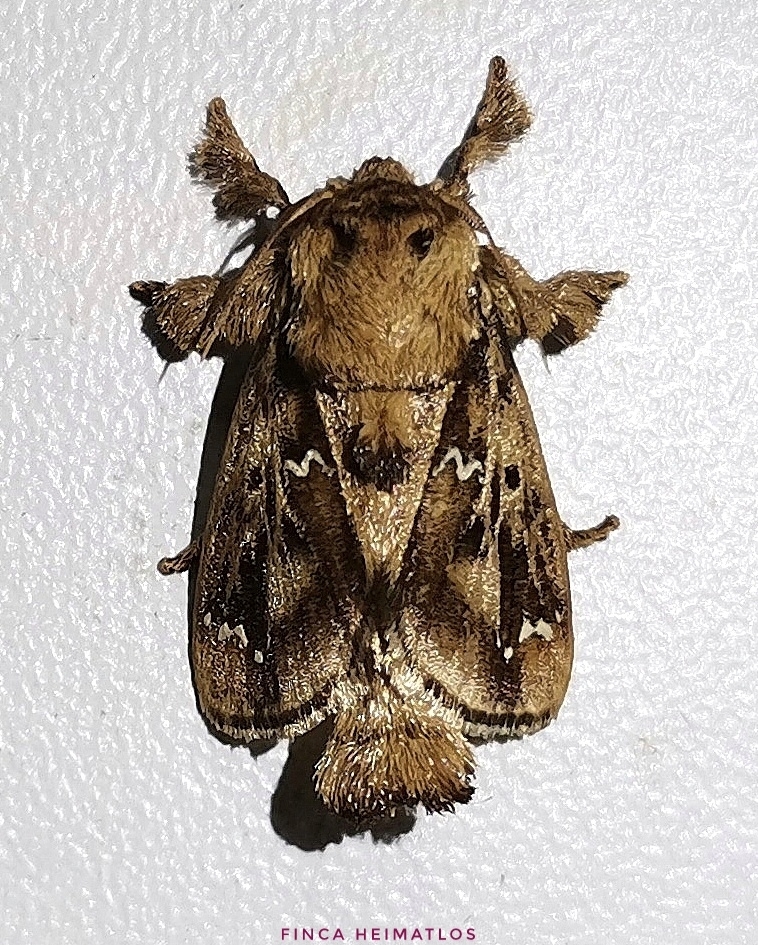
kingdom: Animalia
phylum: Arthropoda
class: Insecta
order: Lepidoptera
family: Limacodidae
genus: Euclea
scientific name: Euclea buscki
